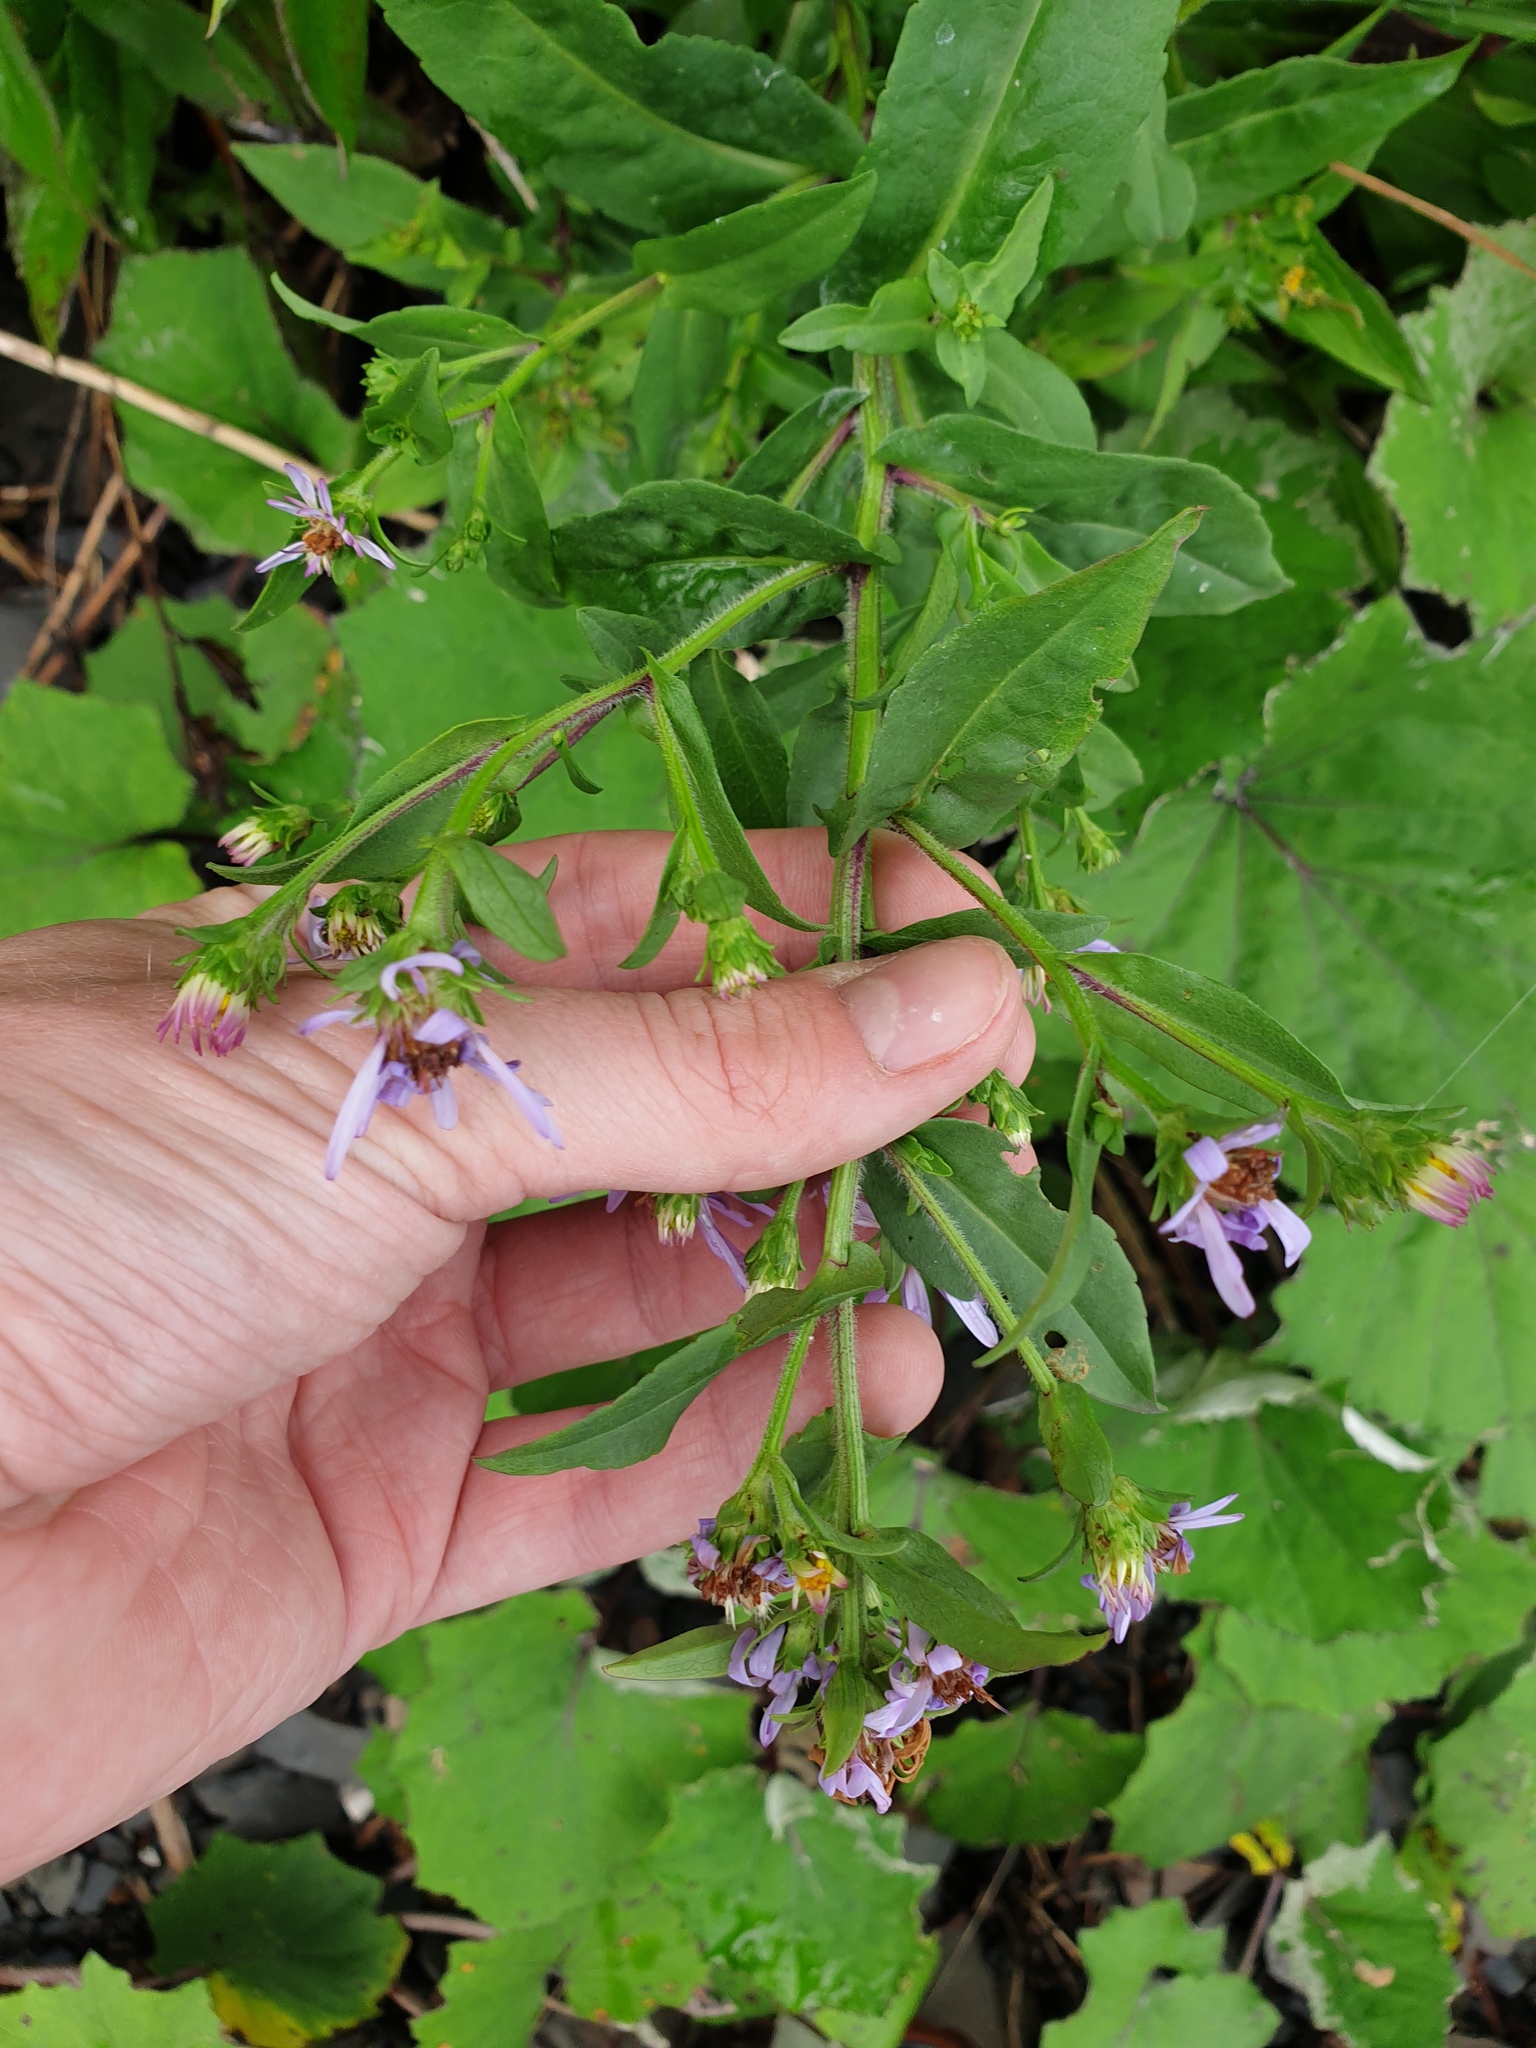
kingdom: Plantae
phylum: Tracheophyta
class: Magnoliopsida
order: Asterales
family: Asteraceae
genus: Symphyotrichum
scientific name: Symphyotrichum novi-belgii
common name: Michaelmas daisy
